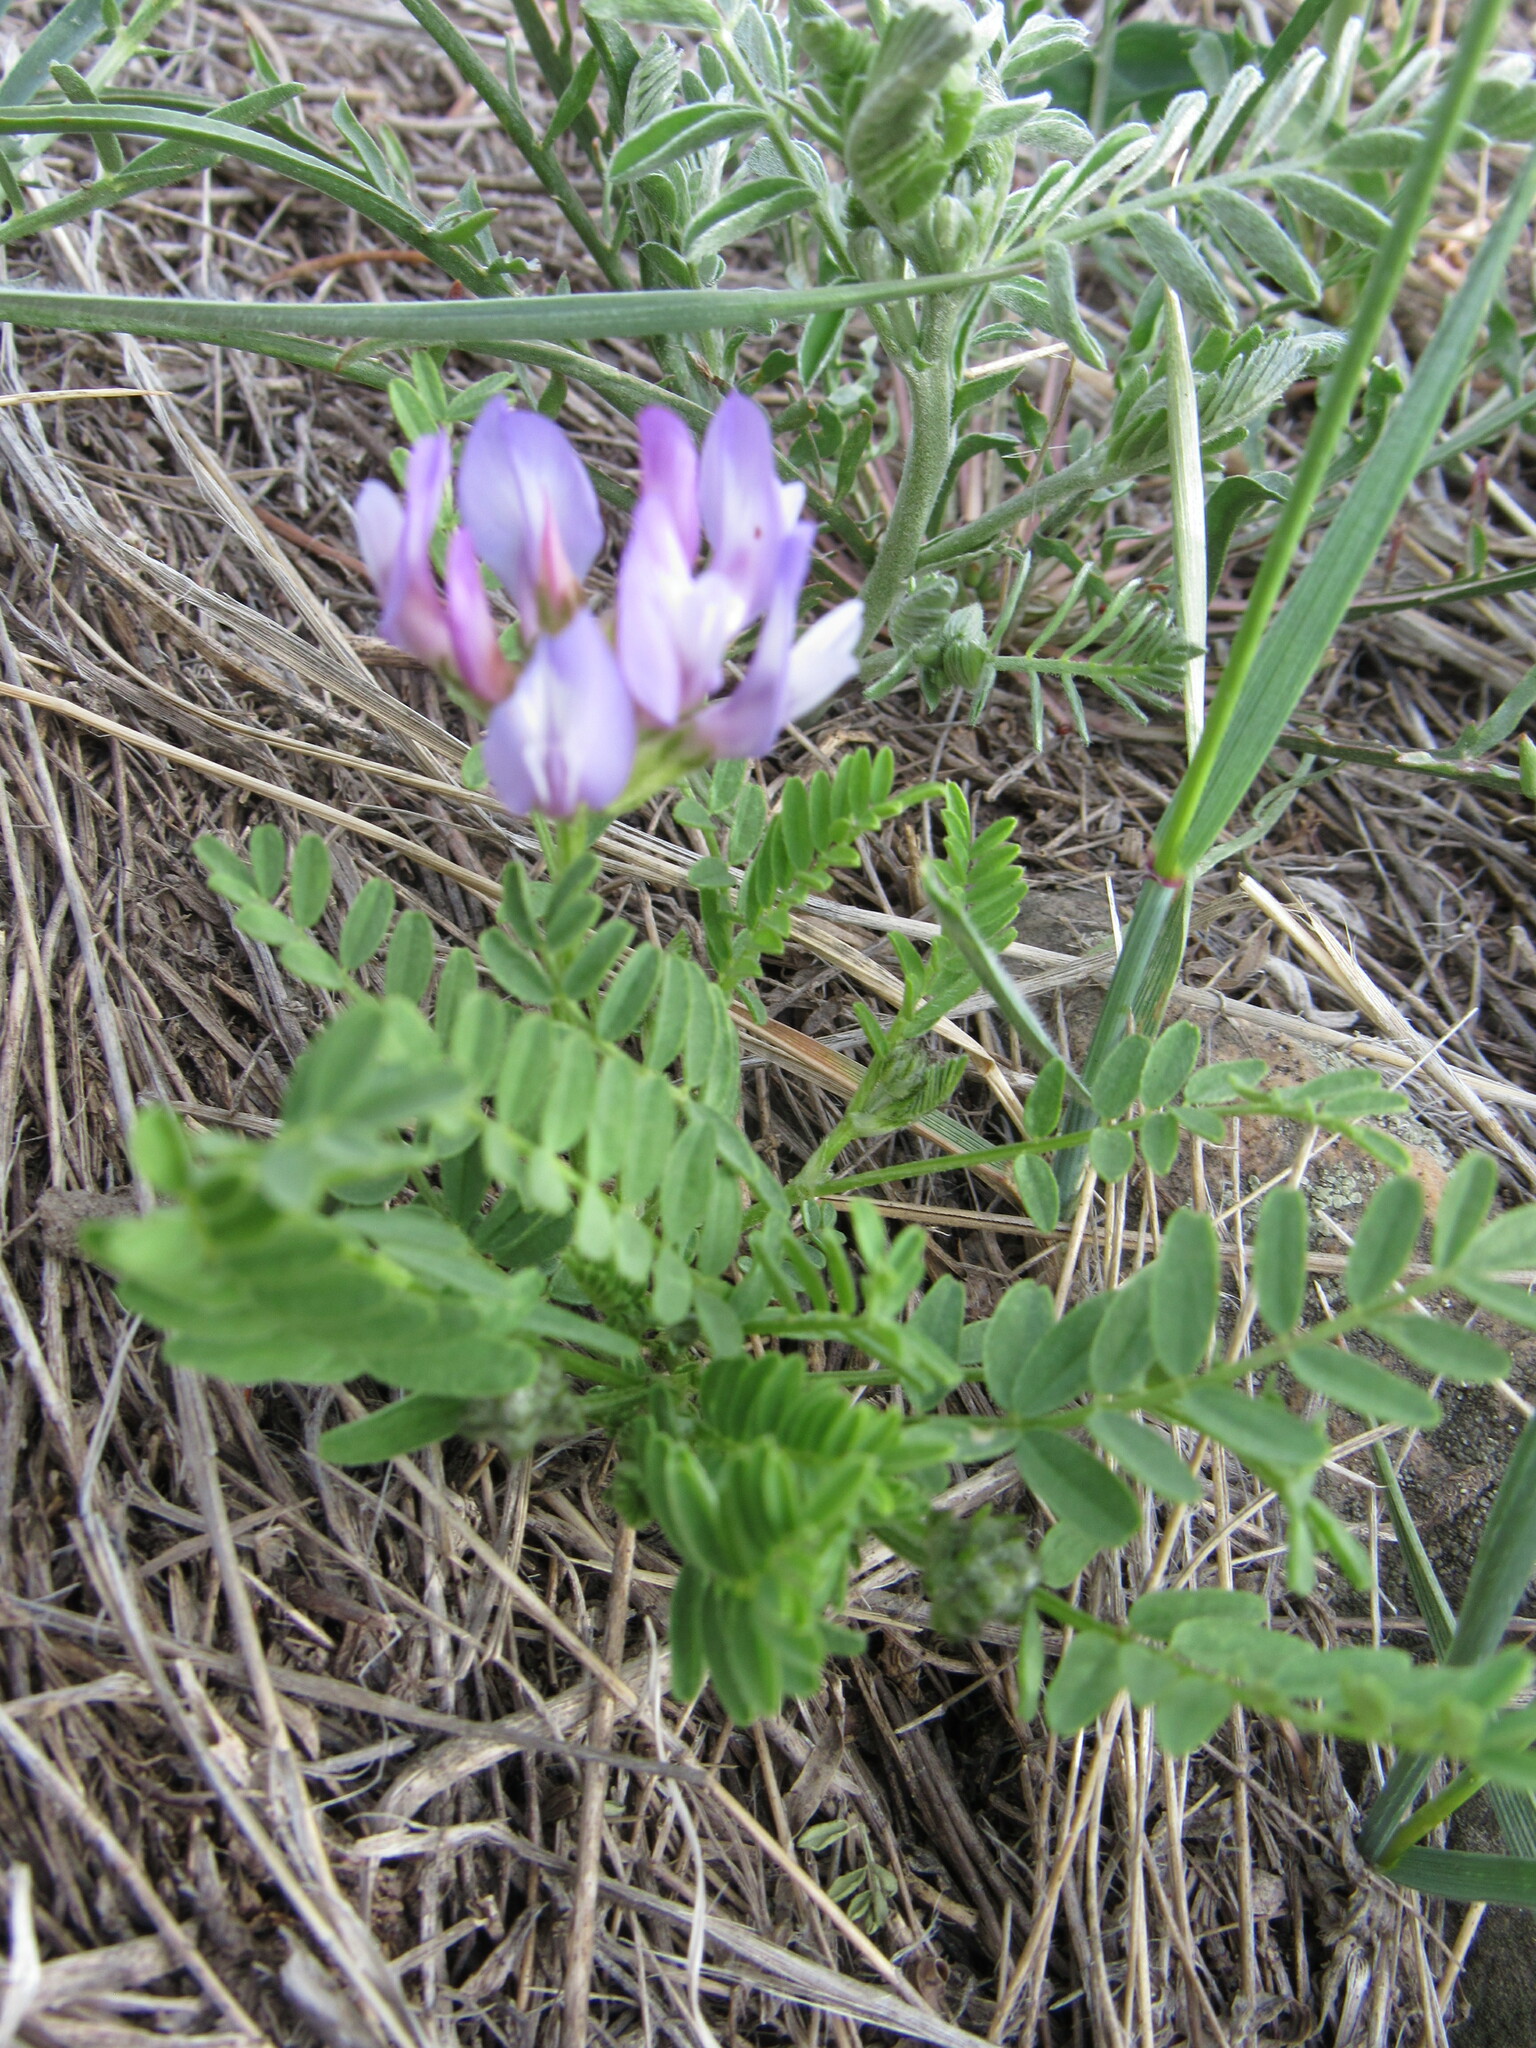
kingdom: Plantae
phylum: Tracheophyta
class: Magnoliopsida
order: Fabales
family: Fabaceae
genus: Astragalus
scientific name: Astragalus agrestis
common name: Field milk-vetch
